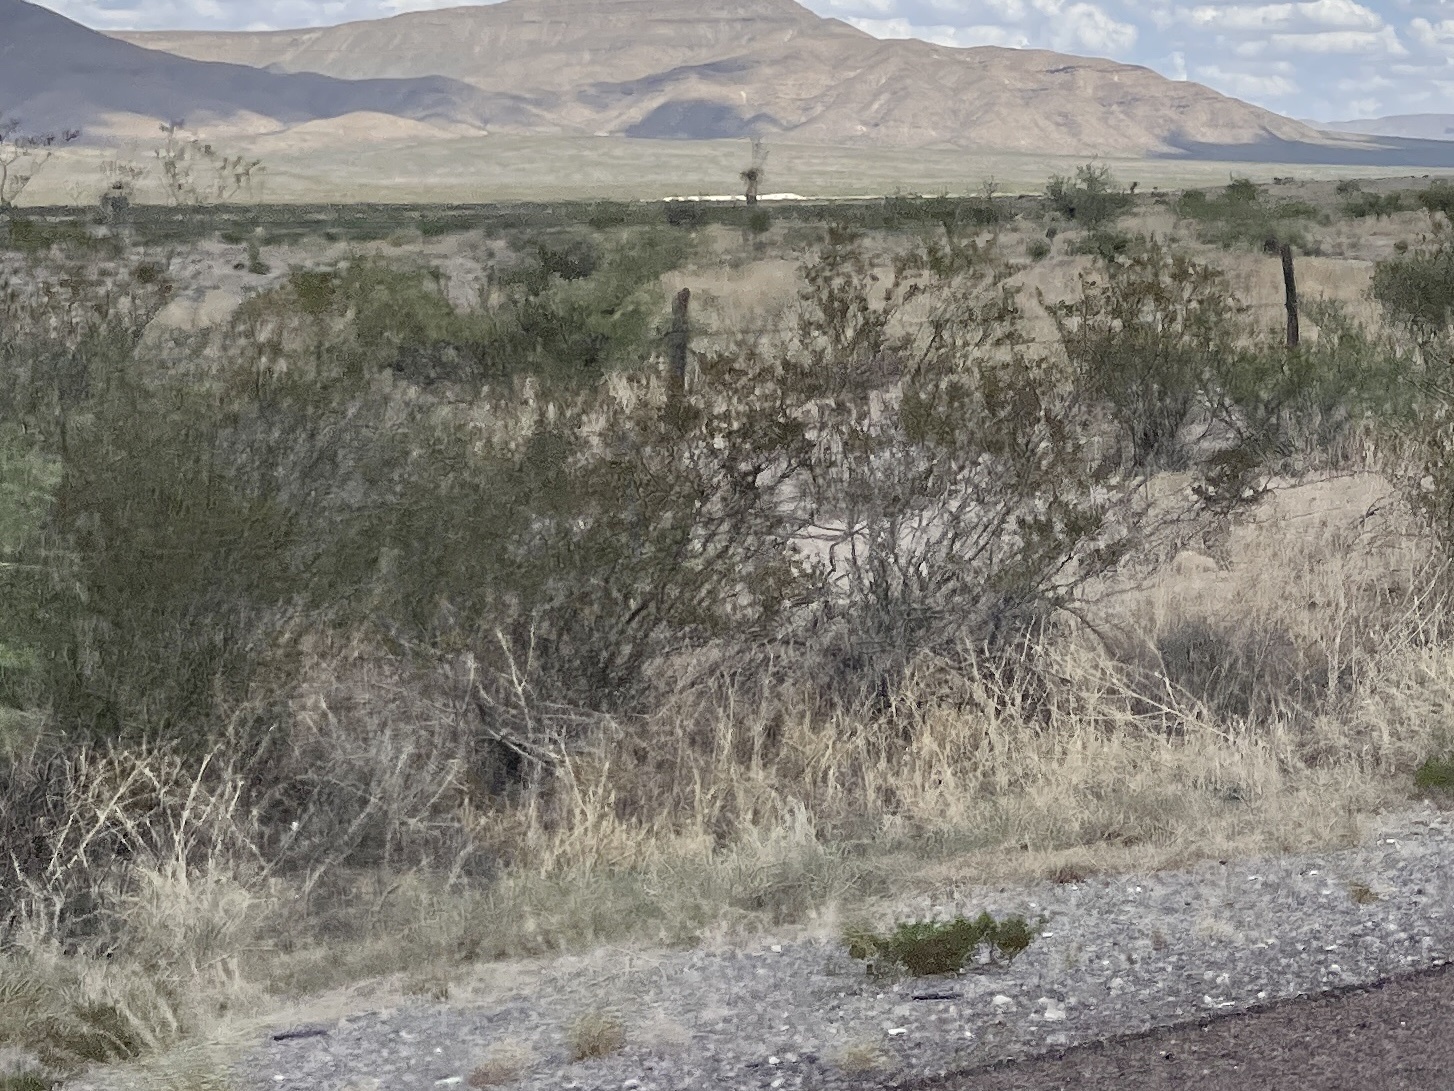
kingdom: Plantae
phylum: Tracheophyta
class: Magnoliopsida
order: Zygophyllales
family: Zygophyllaceae
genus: Larrea
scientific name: Larrea tridentata
